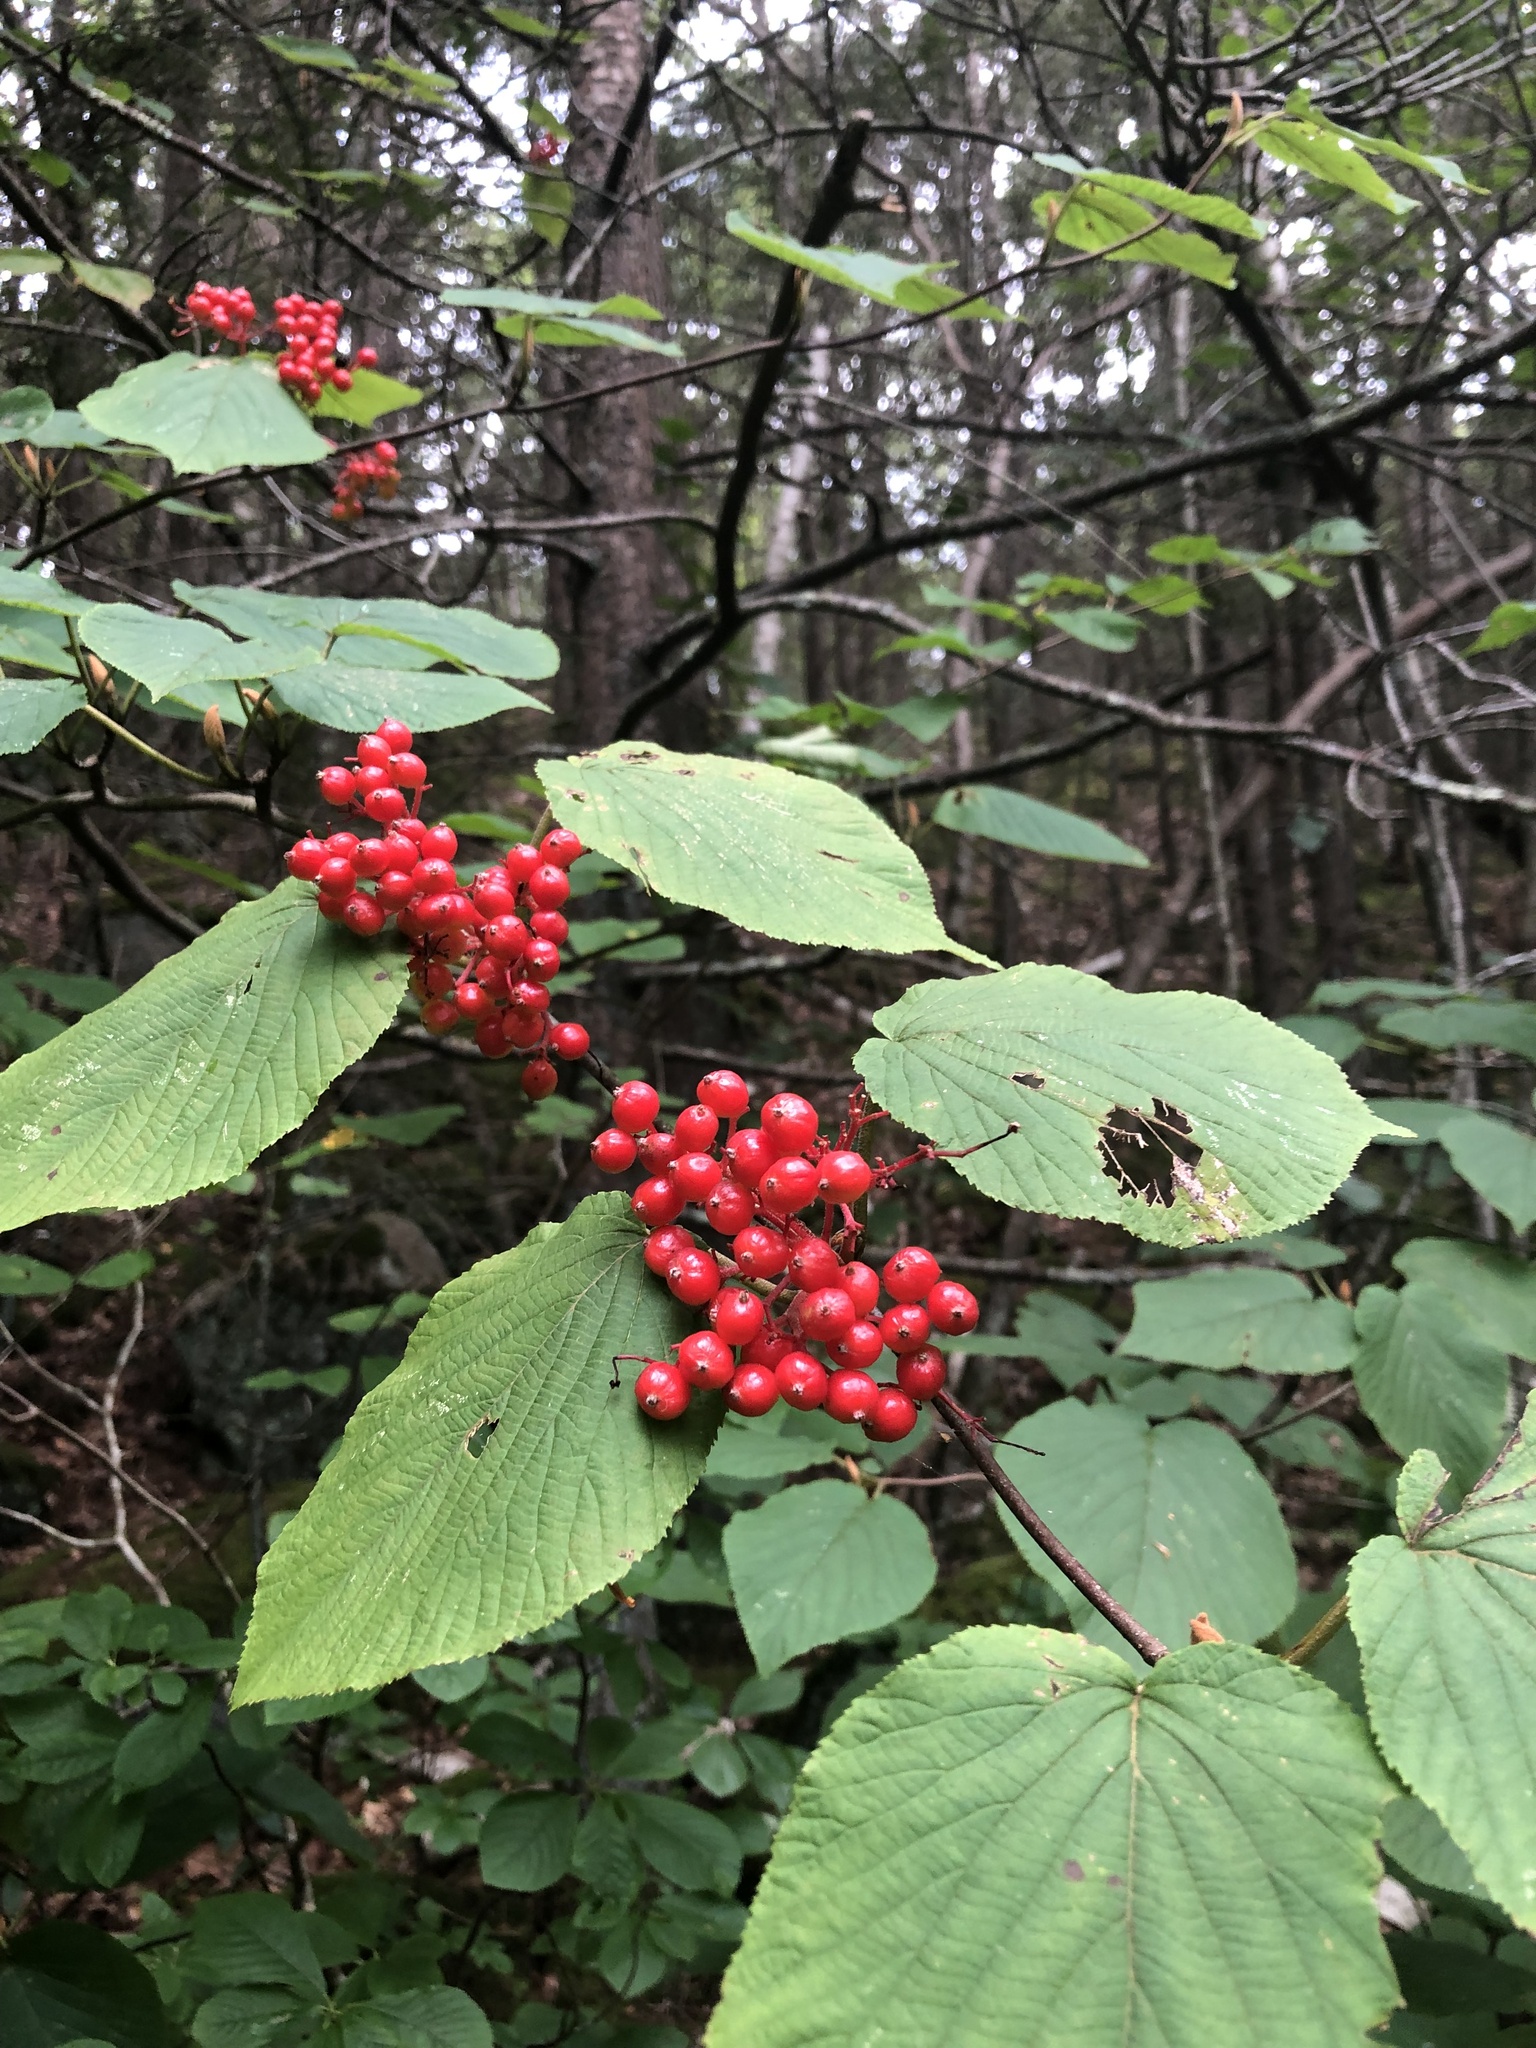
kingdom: Plantae
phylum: Tracheophyta
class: Magnoliopsida
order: Dipsacales
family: Viburnaceae
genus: Viburnum
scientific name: Viburnum lantanoides
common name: Hobblebush
